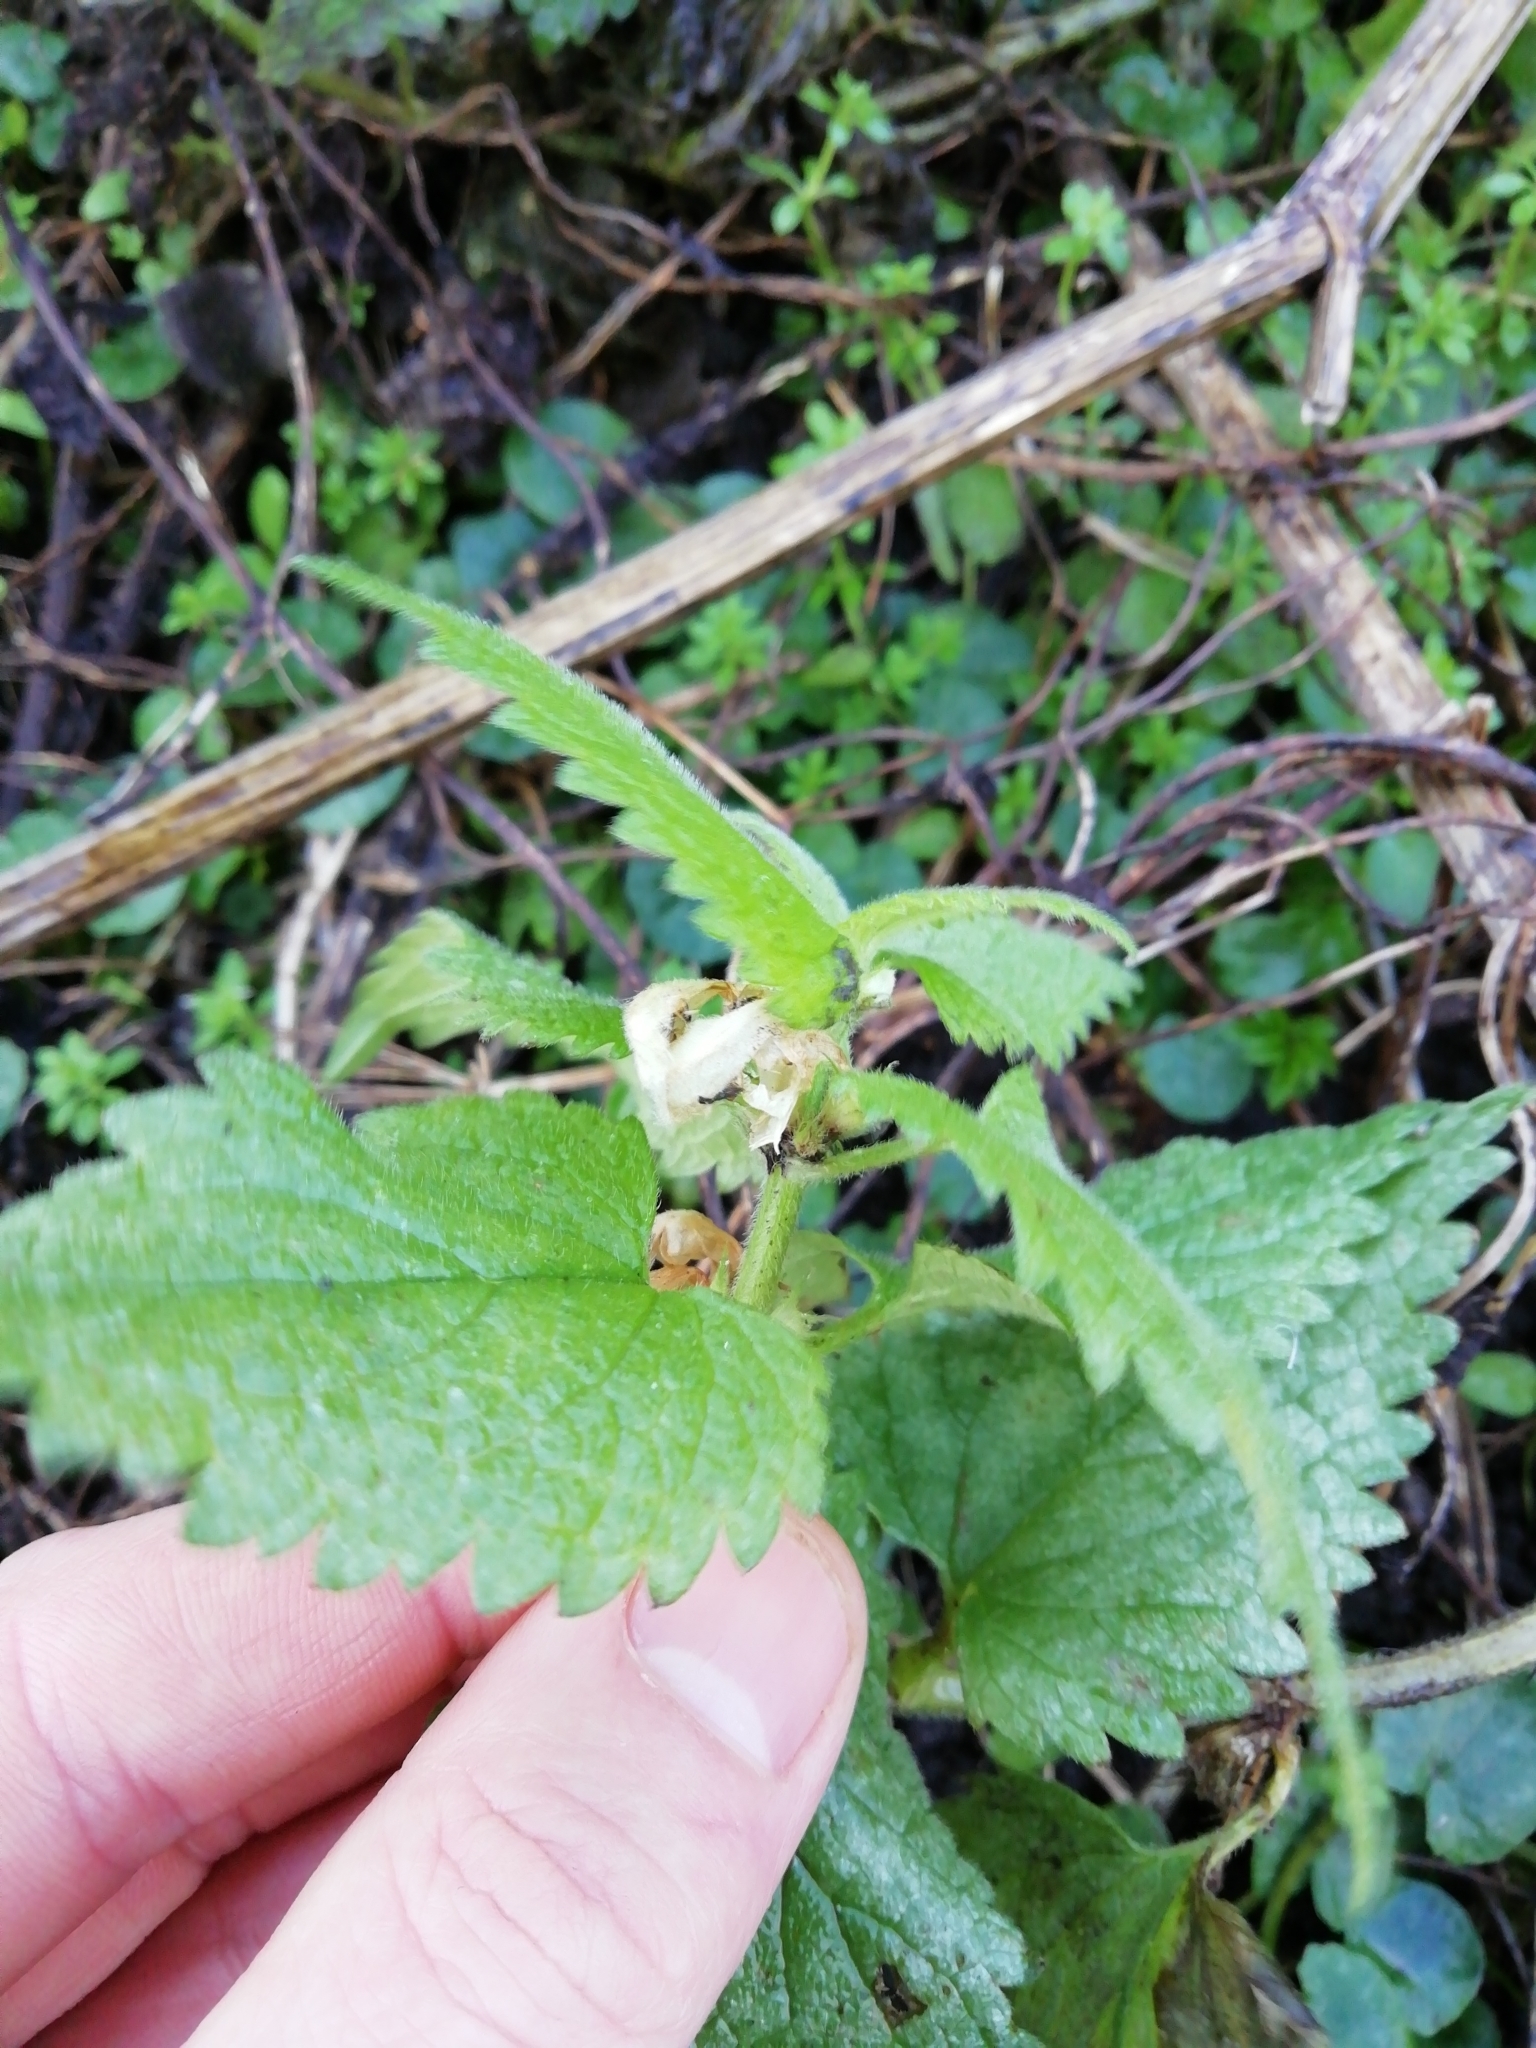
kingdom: Plantae
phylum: Tracheophyta
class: Magnoliopsida
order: Lamiales
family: Lamiaceae
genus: Lamium
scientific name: Lamium album
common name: White dead-nettle
